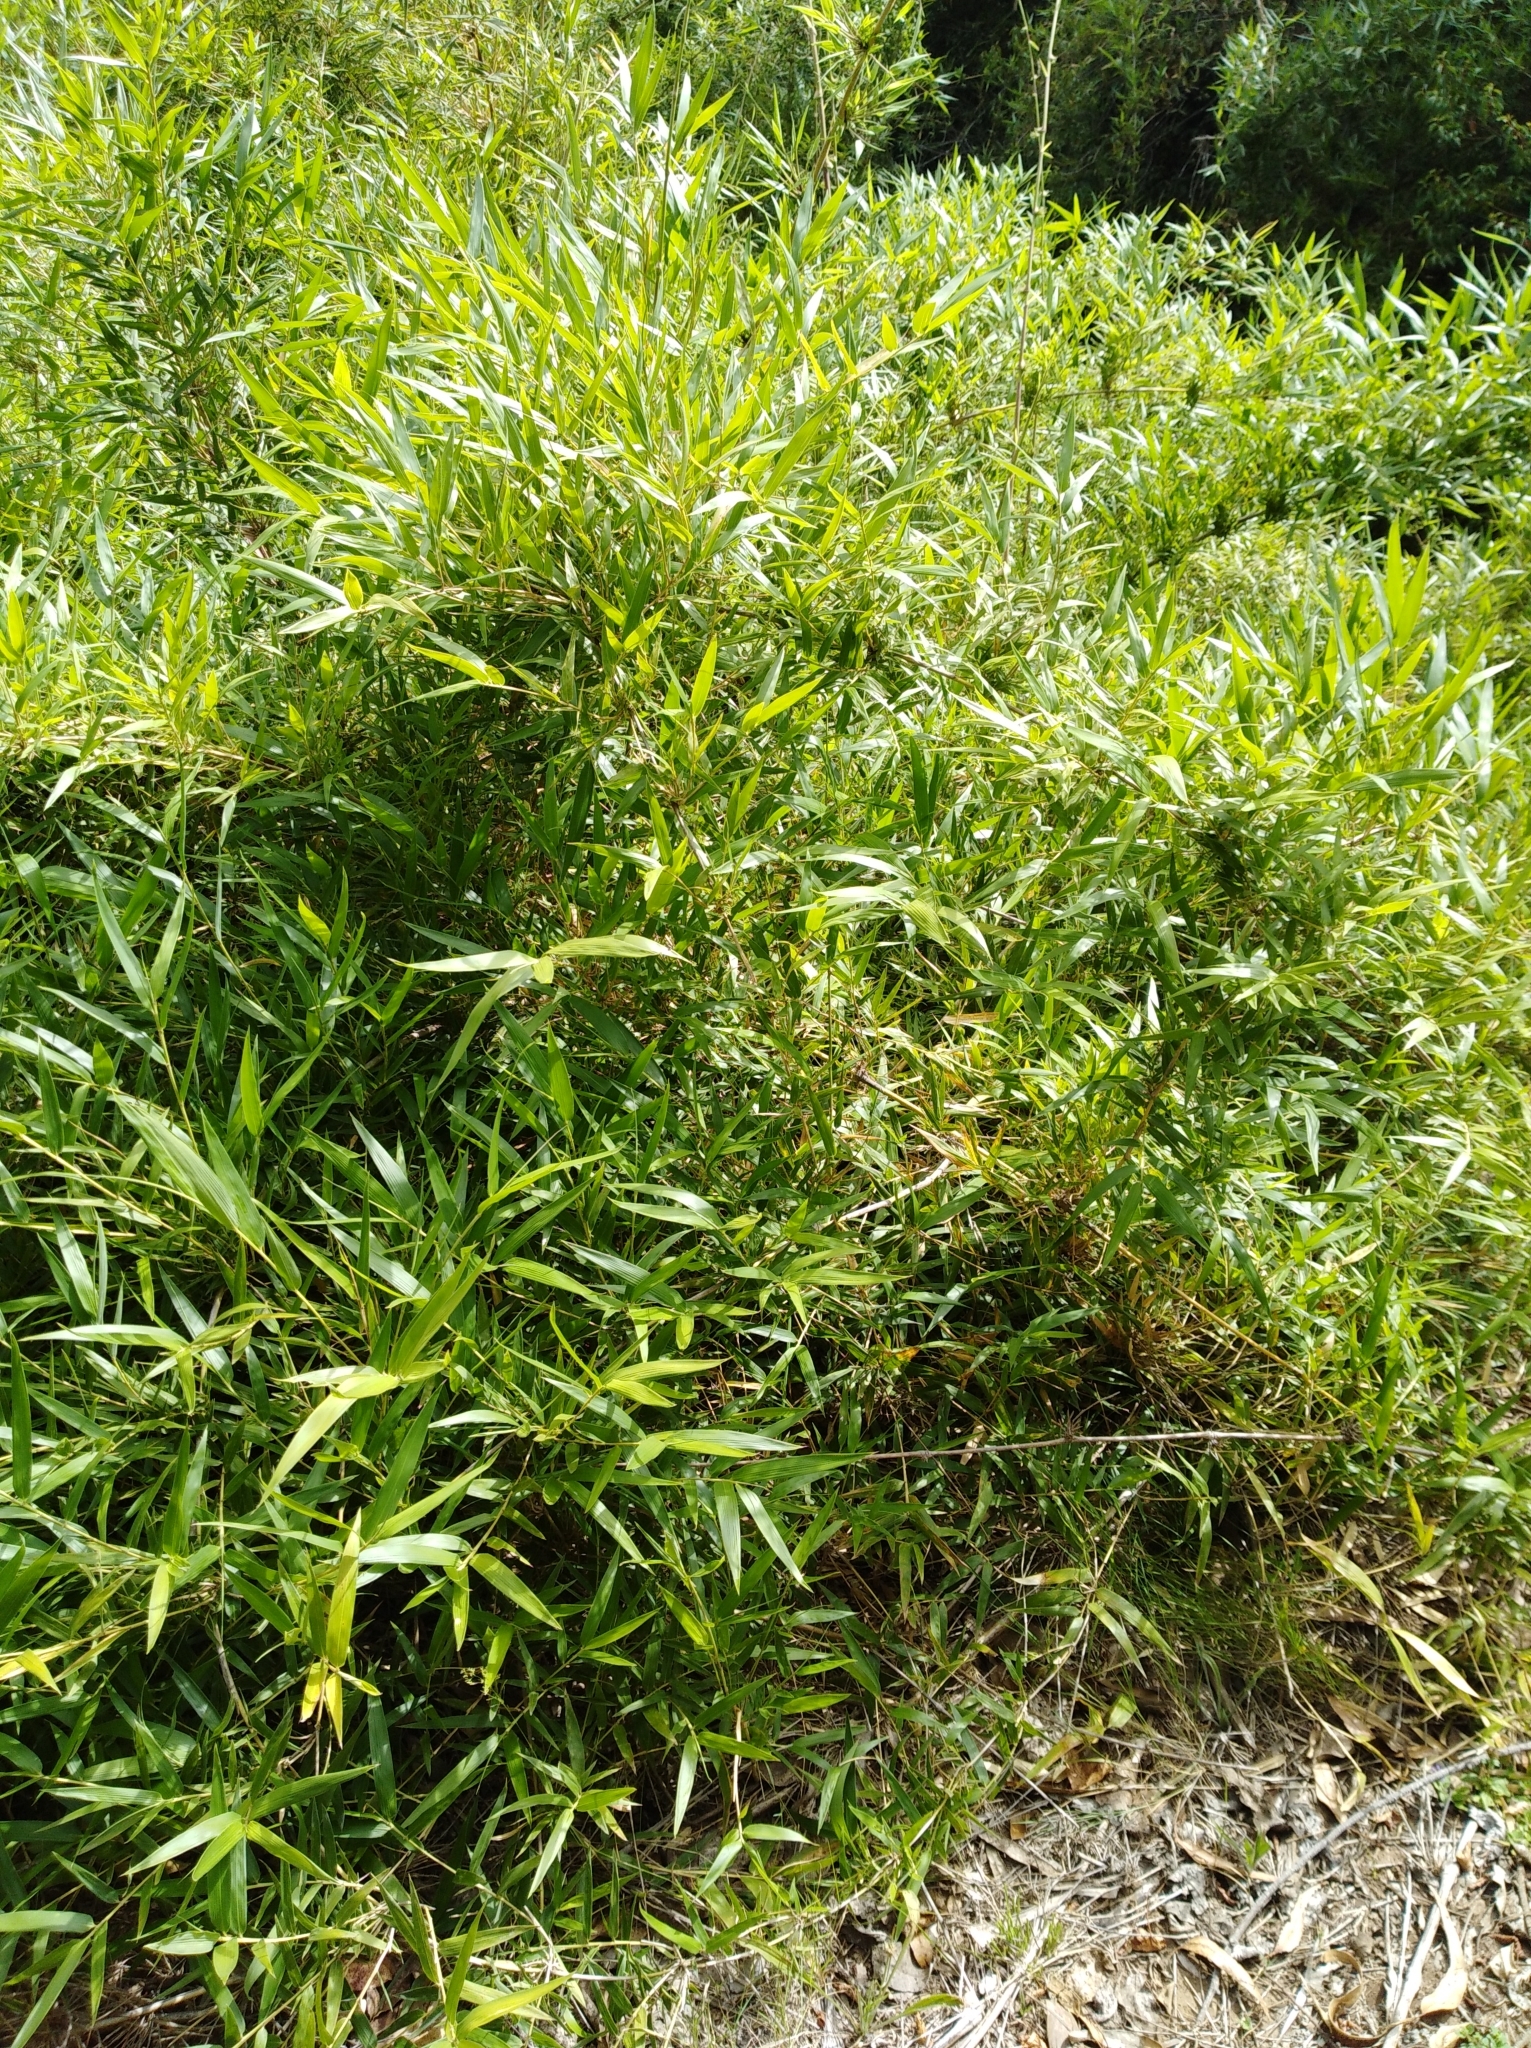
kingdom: Plantae
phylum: Tracheophyta
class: Liliopsida
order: Poales
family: Poaceae
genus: Chusquea
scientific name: Chusquea quila
